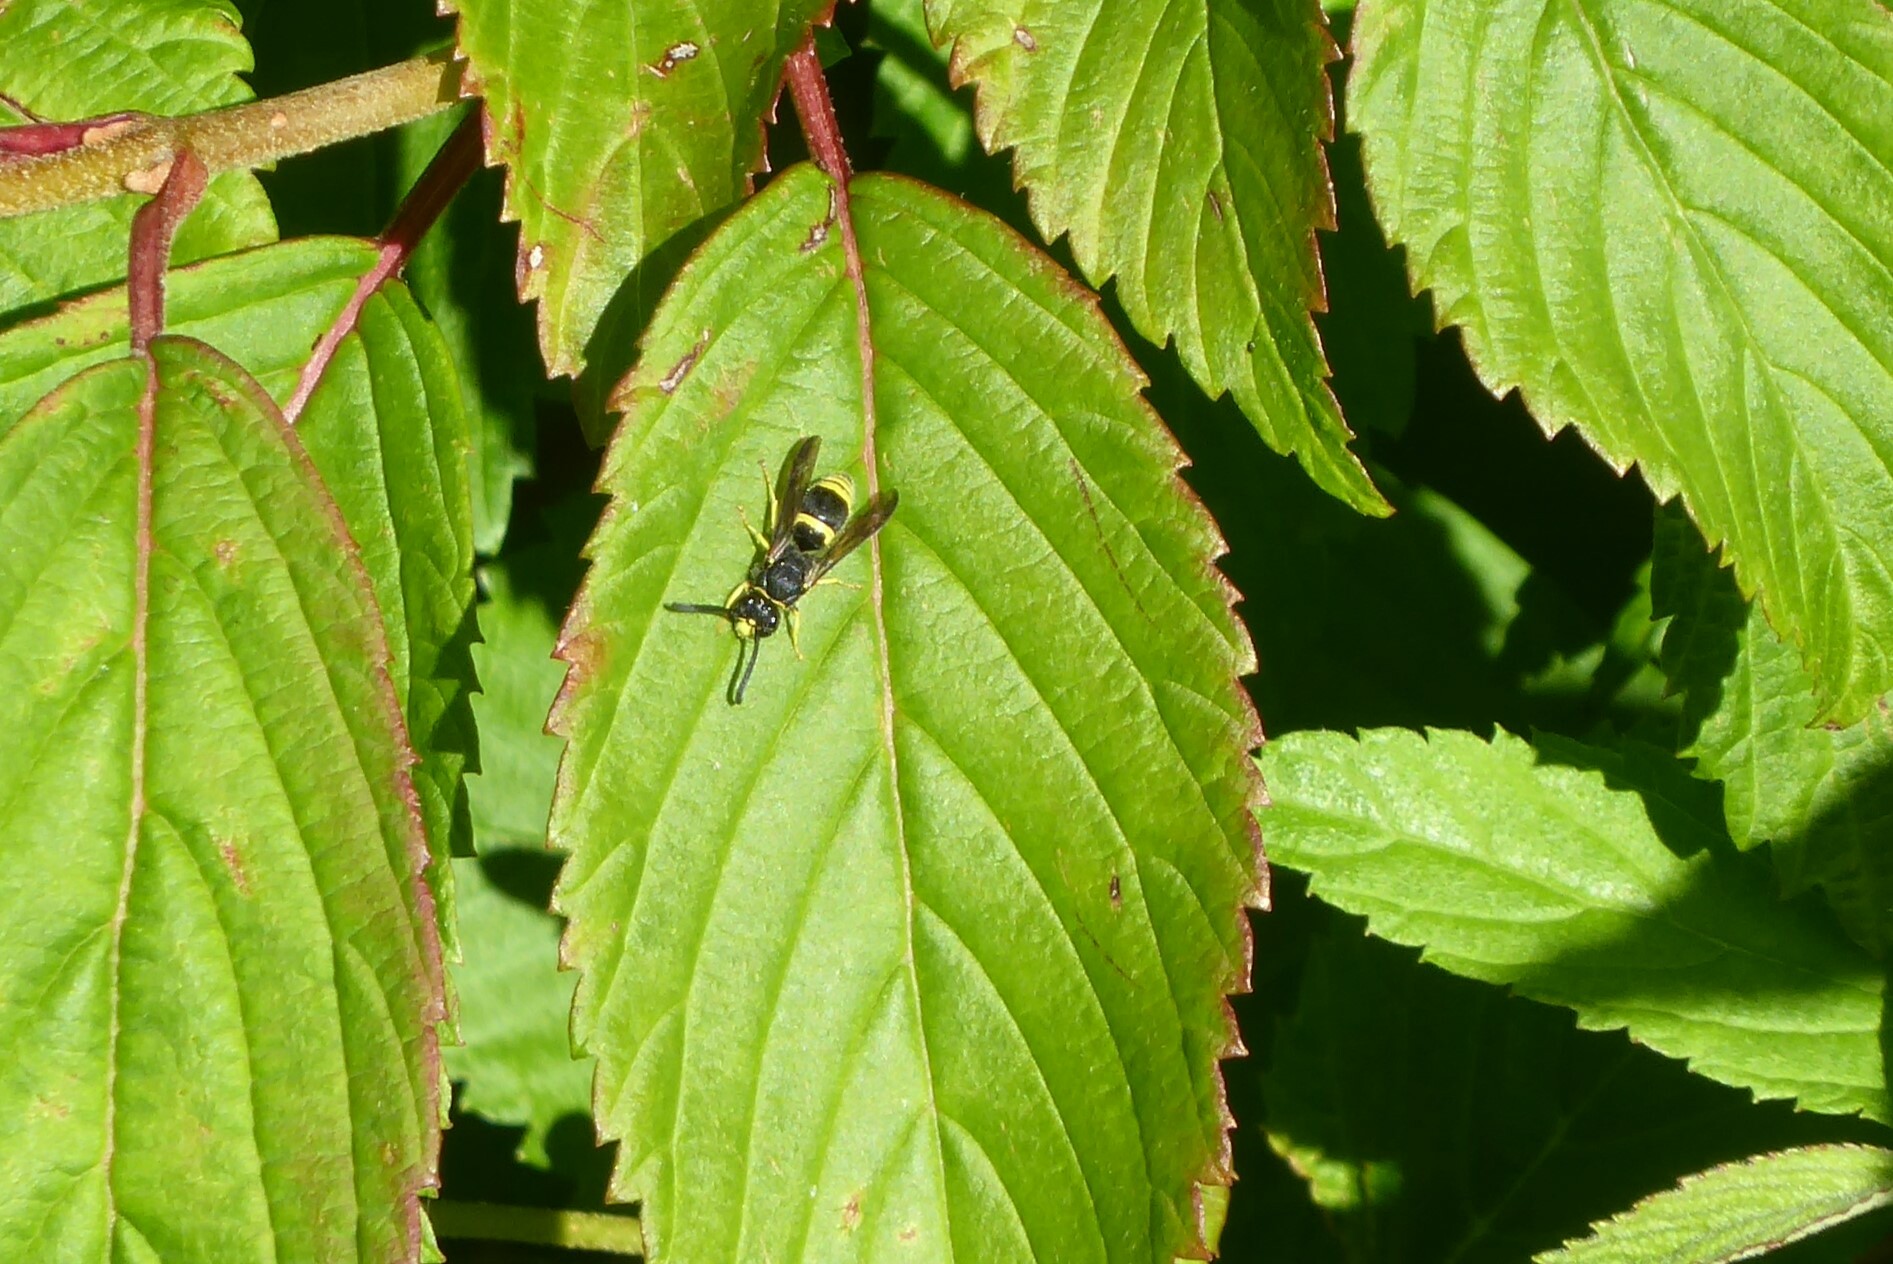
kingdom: Animalia
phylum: Arthropoda
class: Insecta
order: Hymenoptera
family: Vespidae
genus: Ancistrocerus
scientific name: Ancistrocerus gazella
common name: European tube wasp
